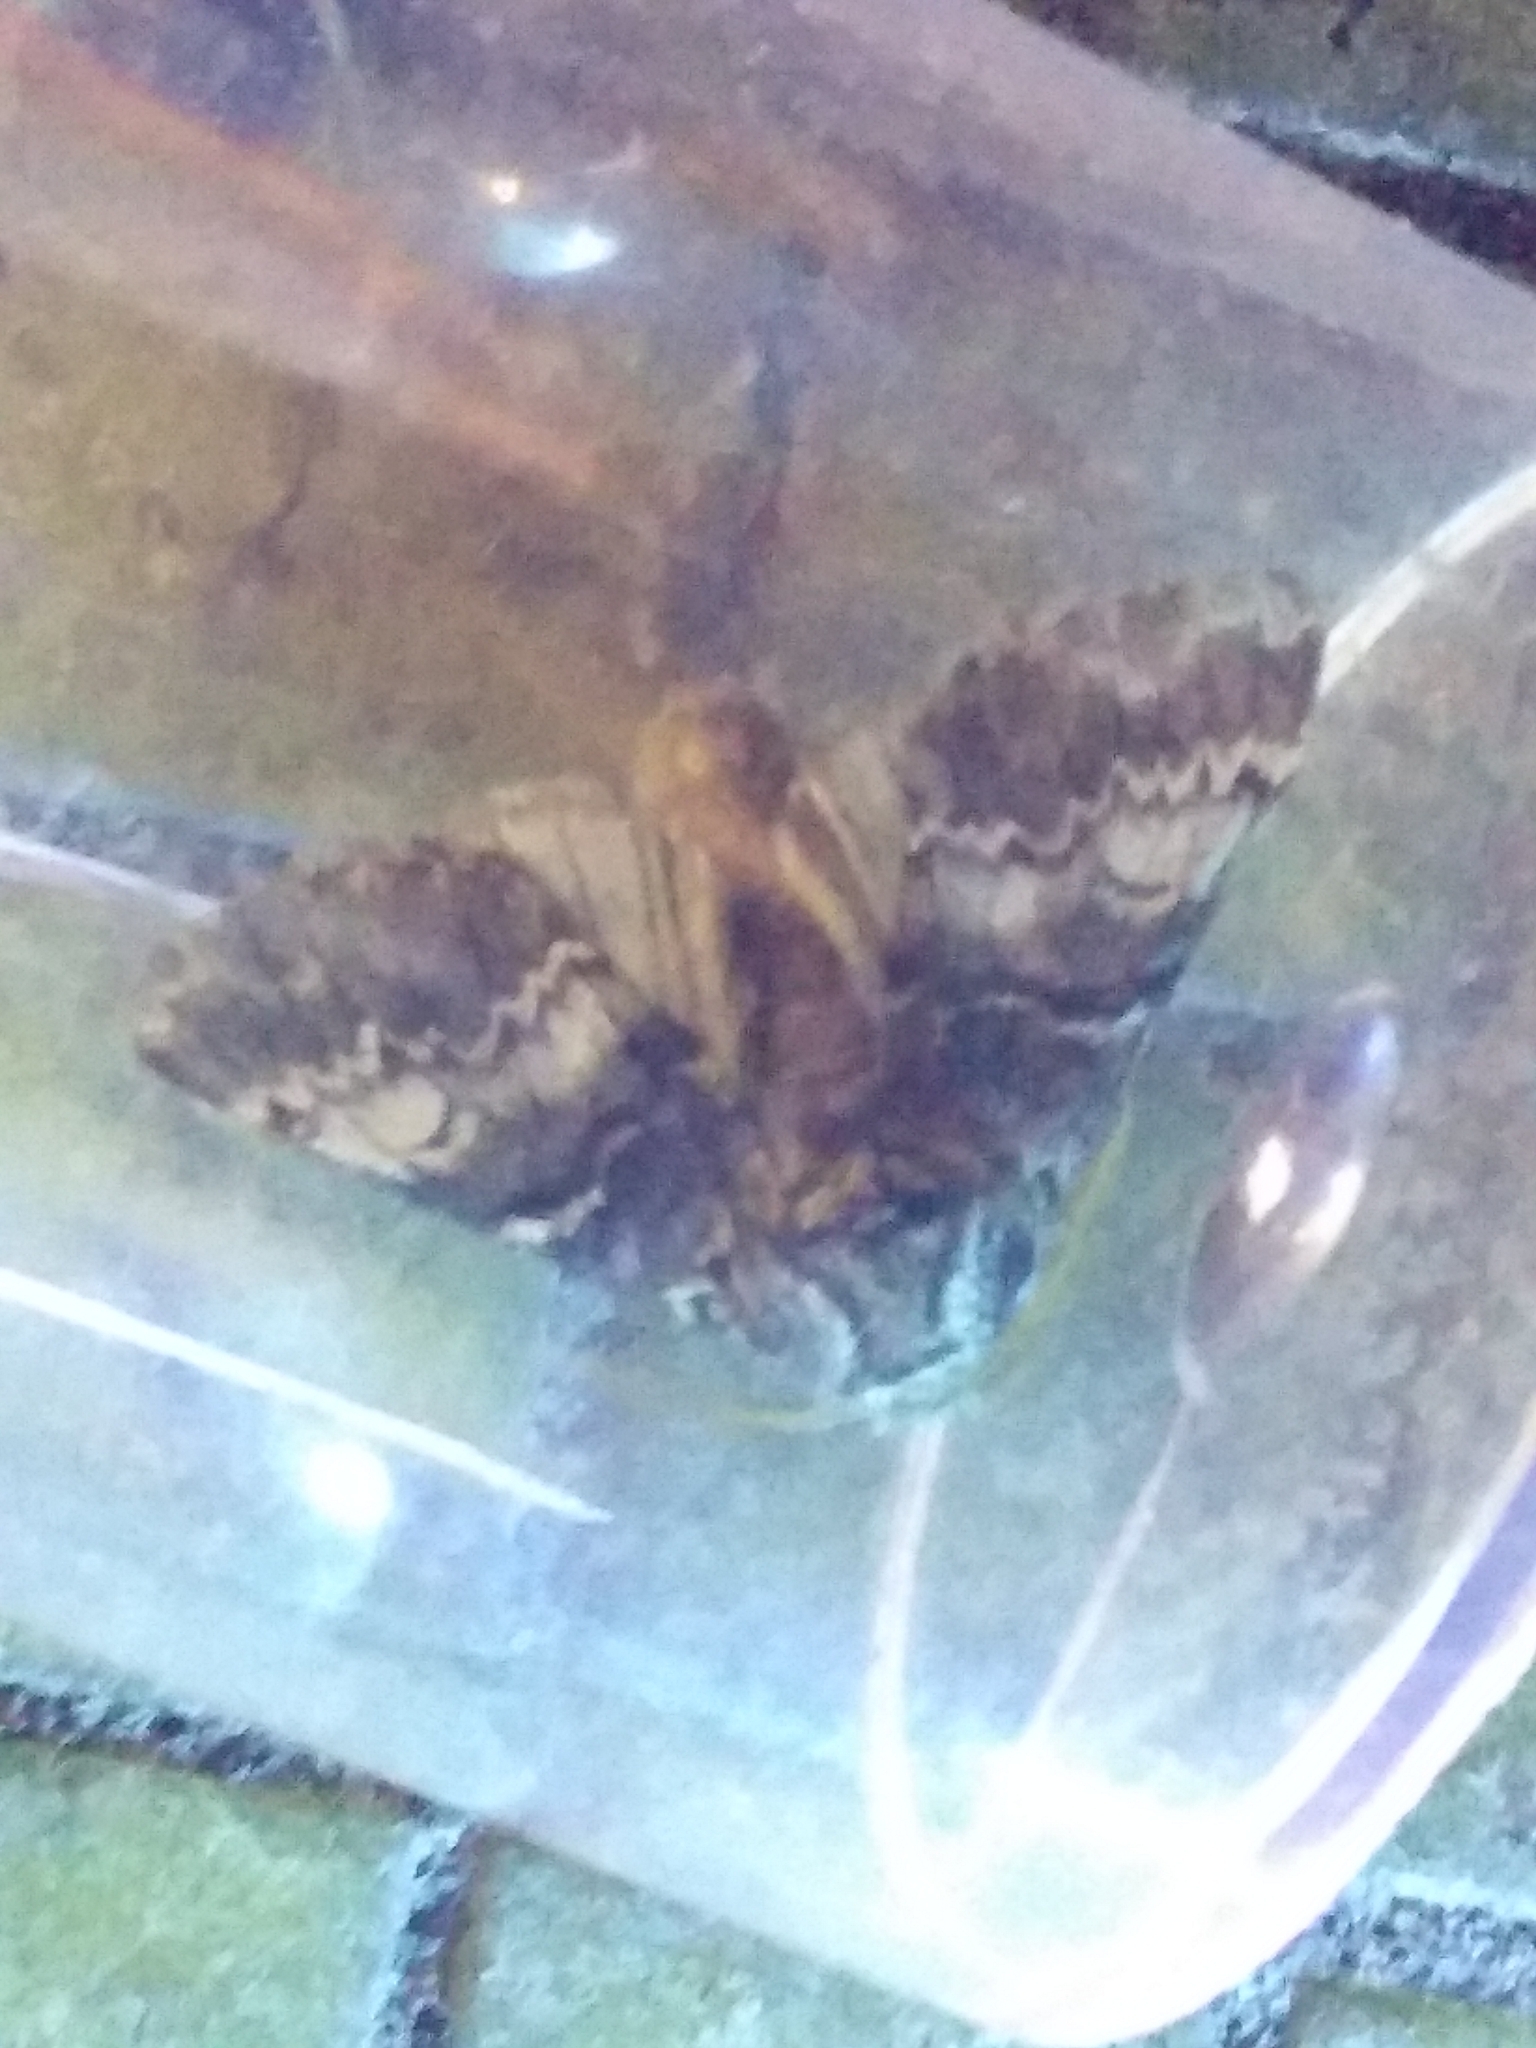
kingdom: Animalia
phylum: Arthropoda
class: Insecta
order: Lepidoptera
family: Notodontidae
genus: Drymonia
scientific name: Drymonia ruficornis
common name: Lunar marbled brown
